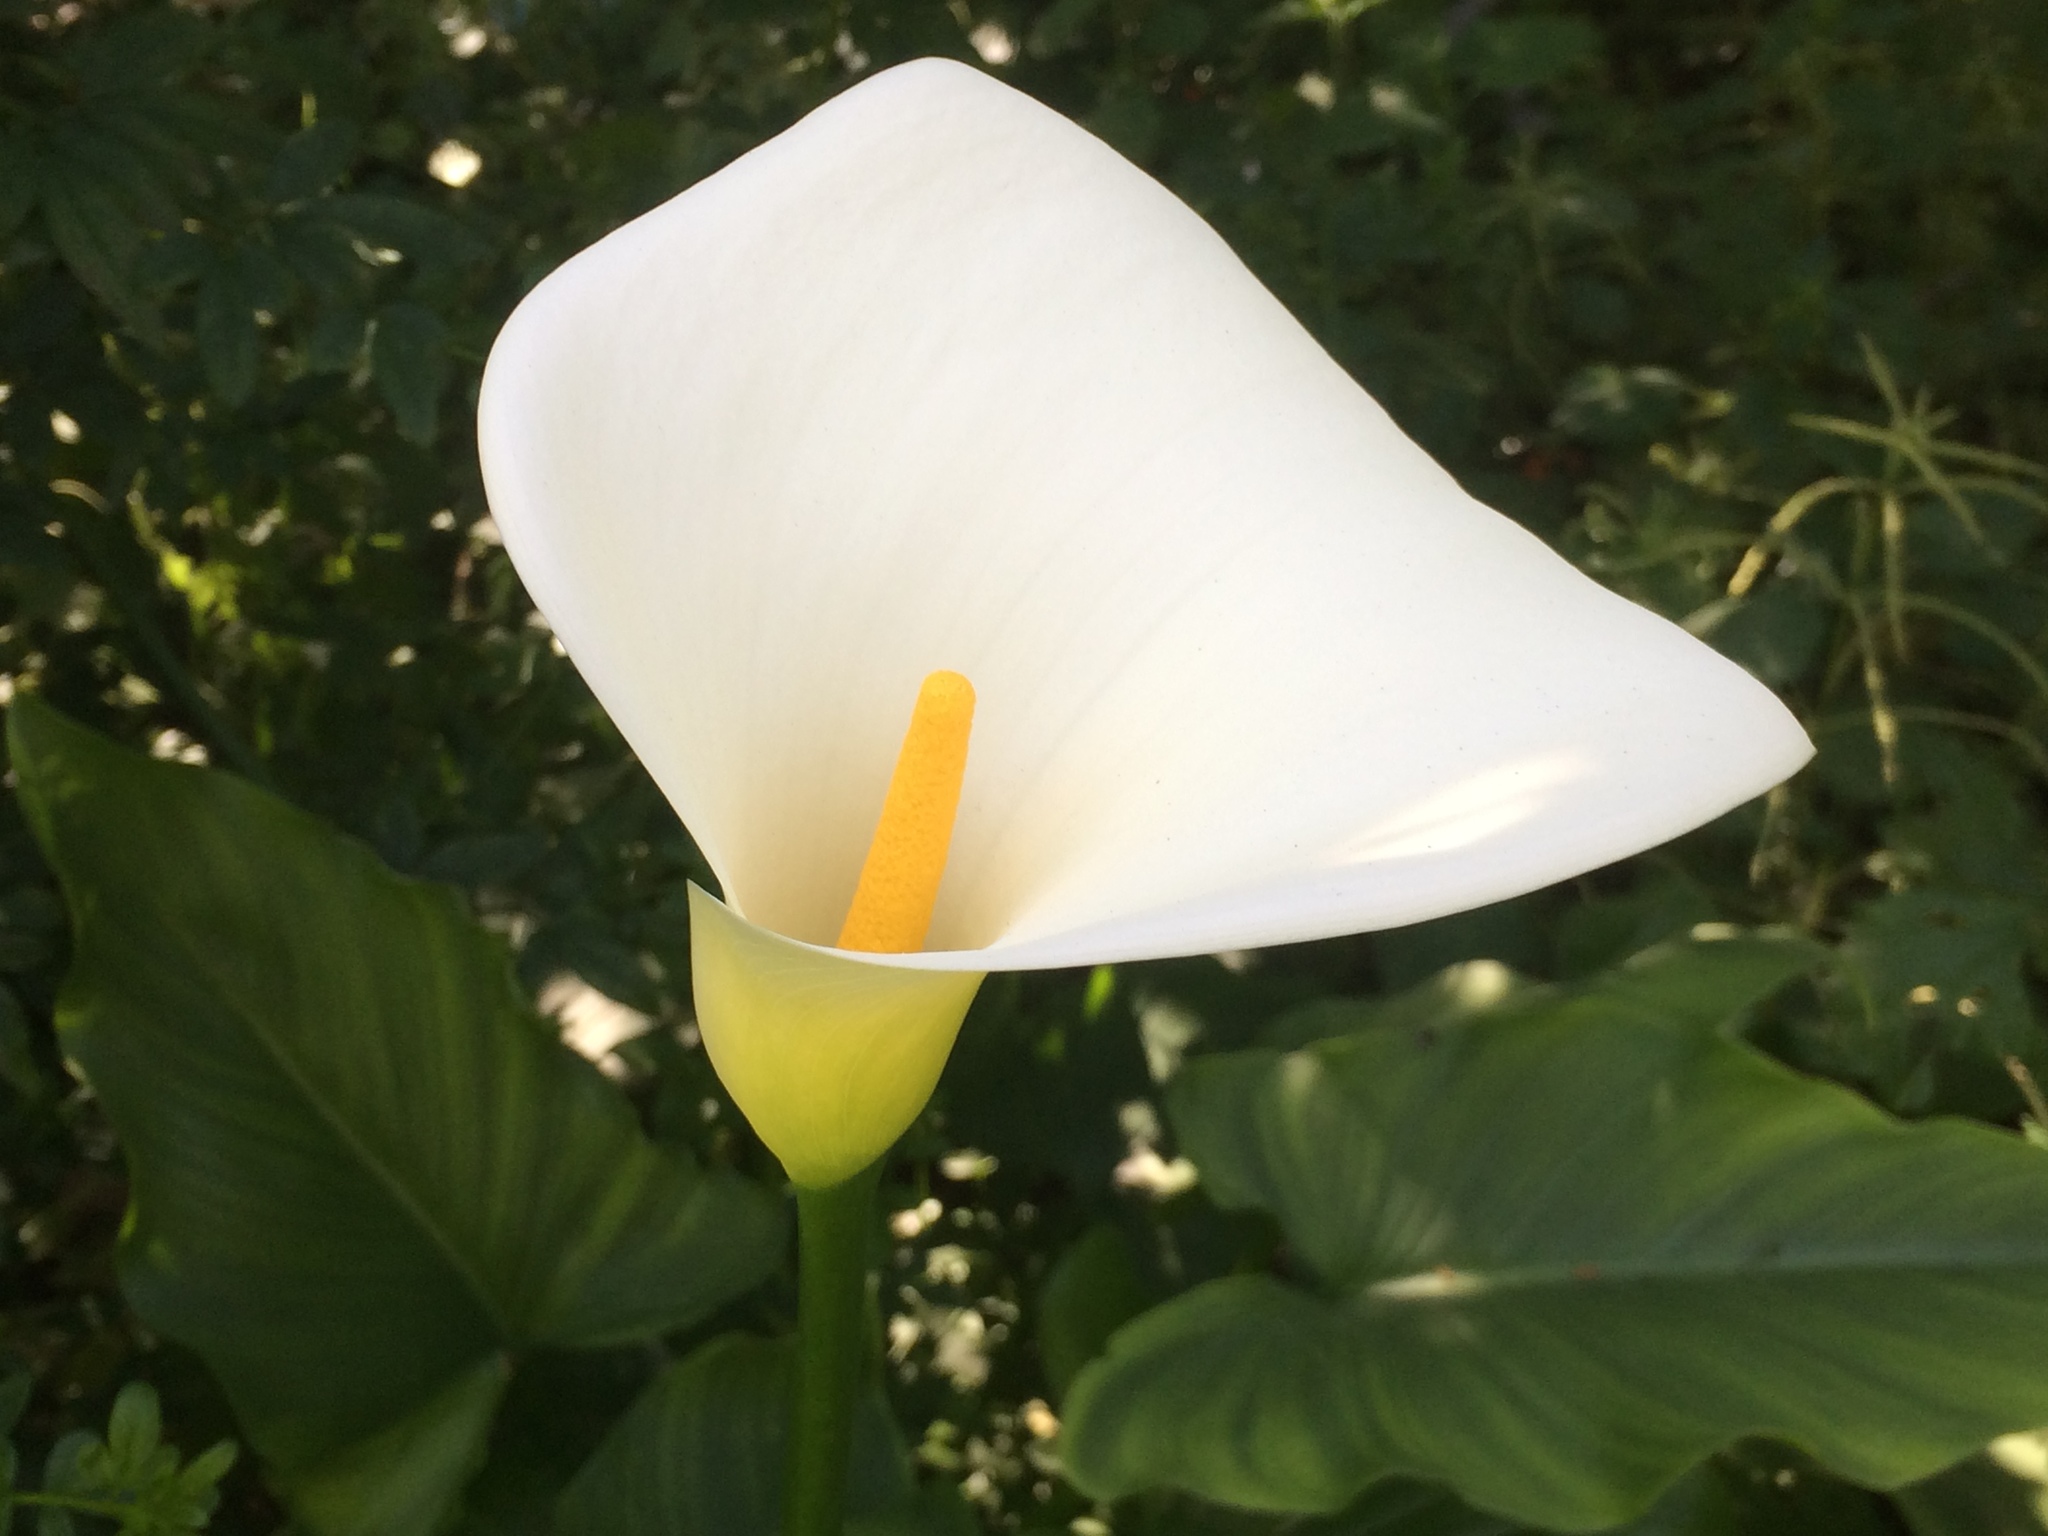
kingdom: Plantae
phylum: Tracheophyta
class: Liliopsida
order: Alismatales
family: Araceae
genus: Zantedeschia
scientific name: Zantedeschia aethiopica
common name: Altar-lily
